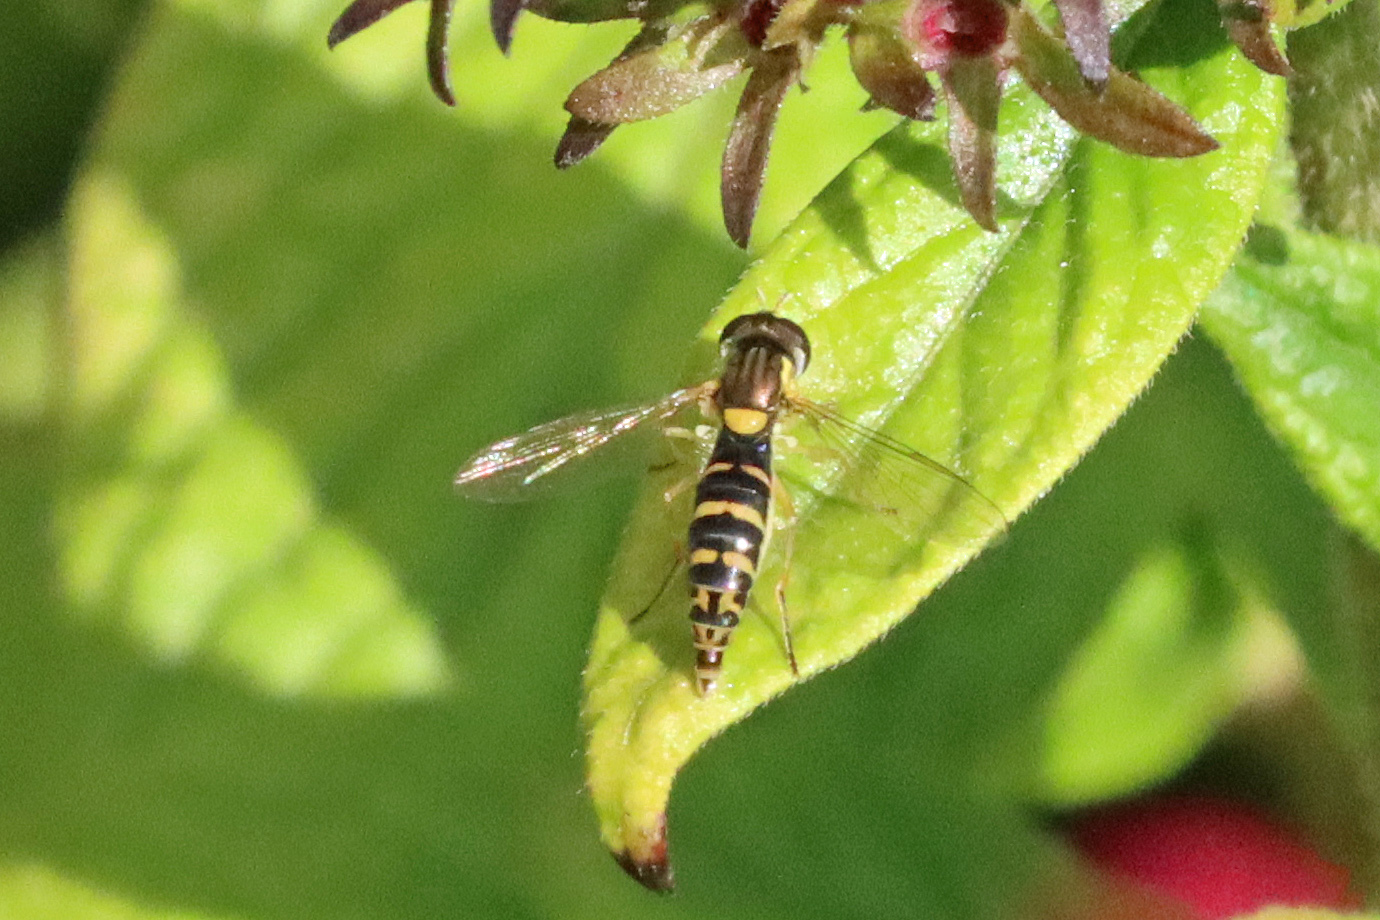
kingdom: Animalia
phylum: Arthropoda
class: Insecta
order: Diptera
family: Syrphidae
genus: Sphaerophoria
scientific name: Sphaerophoria scripta
